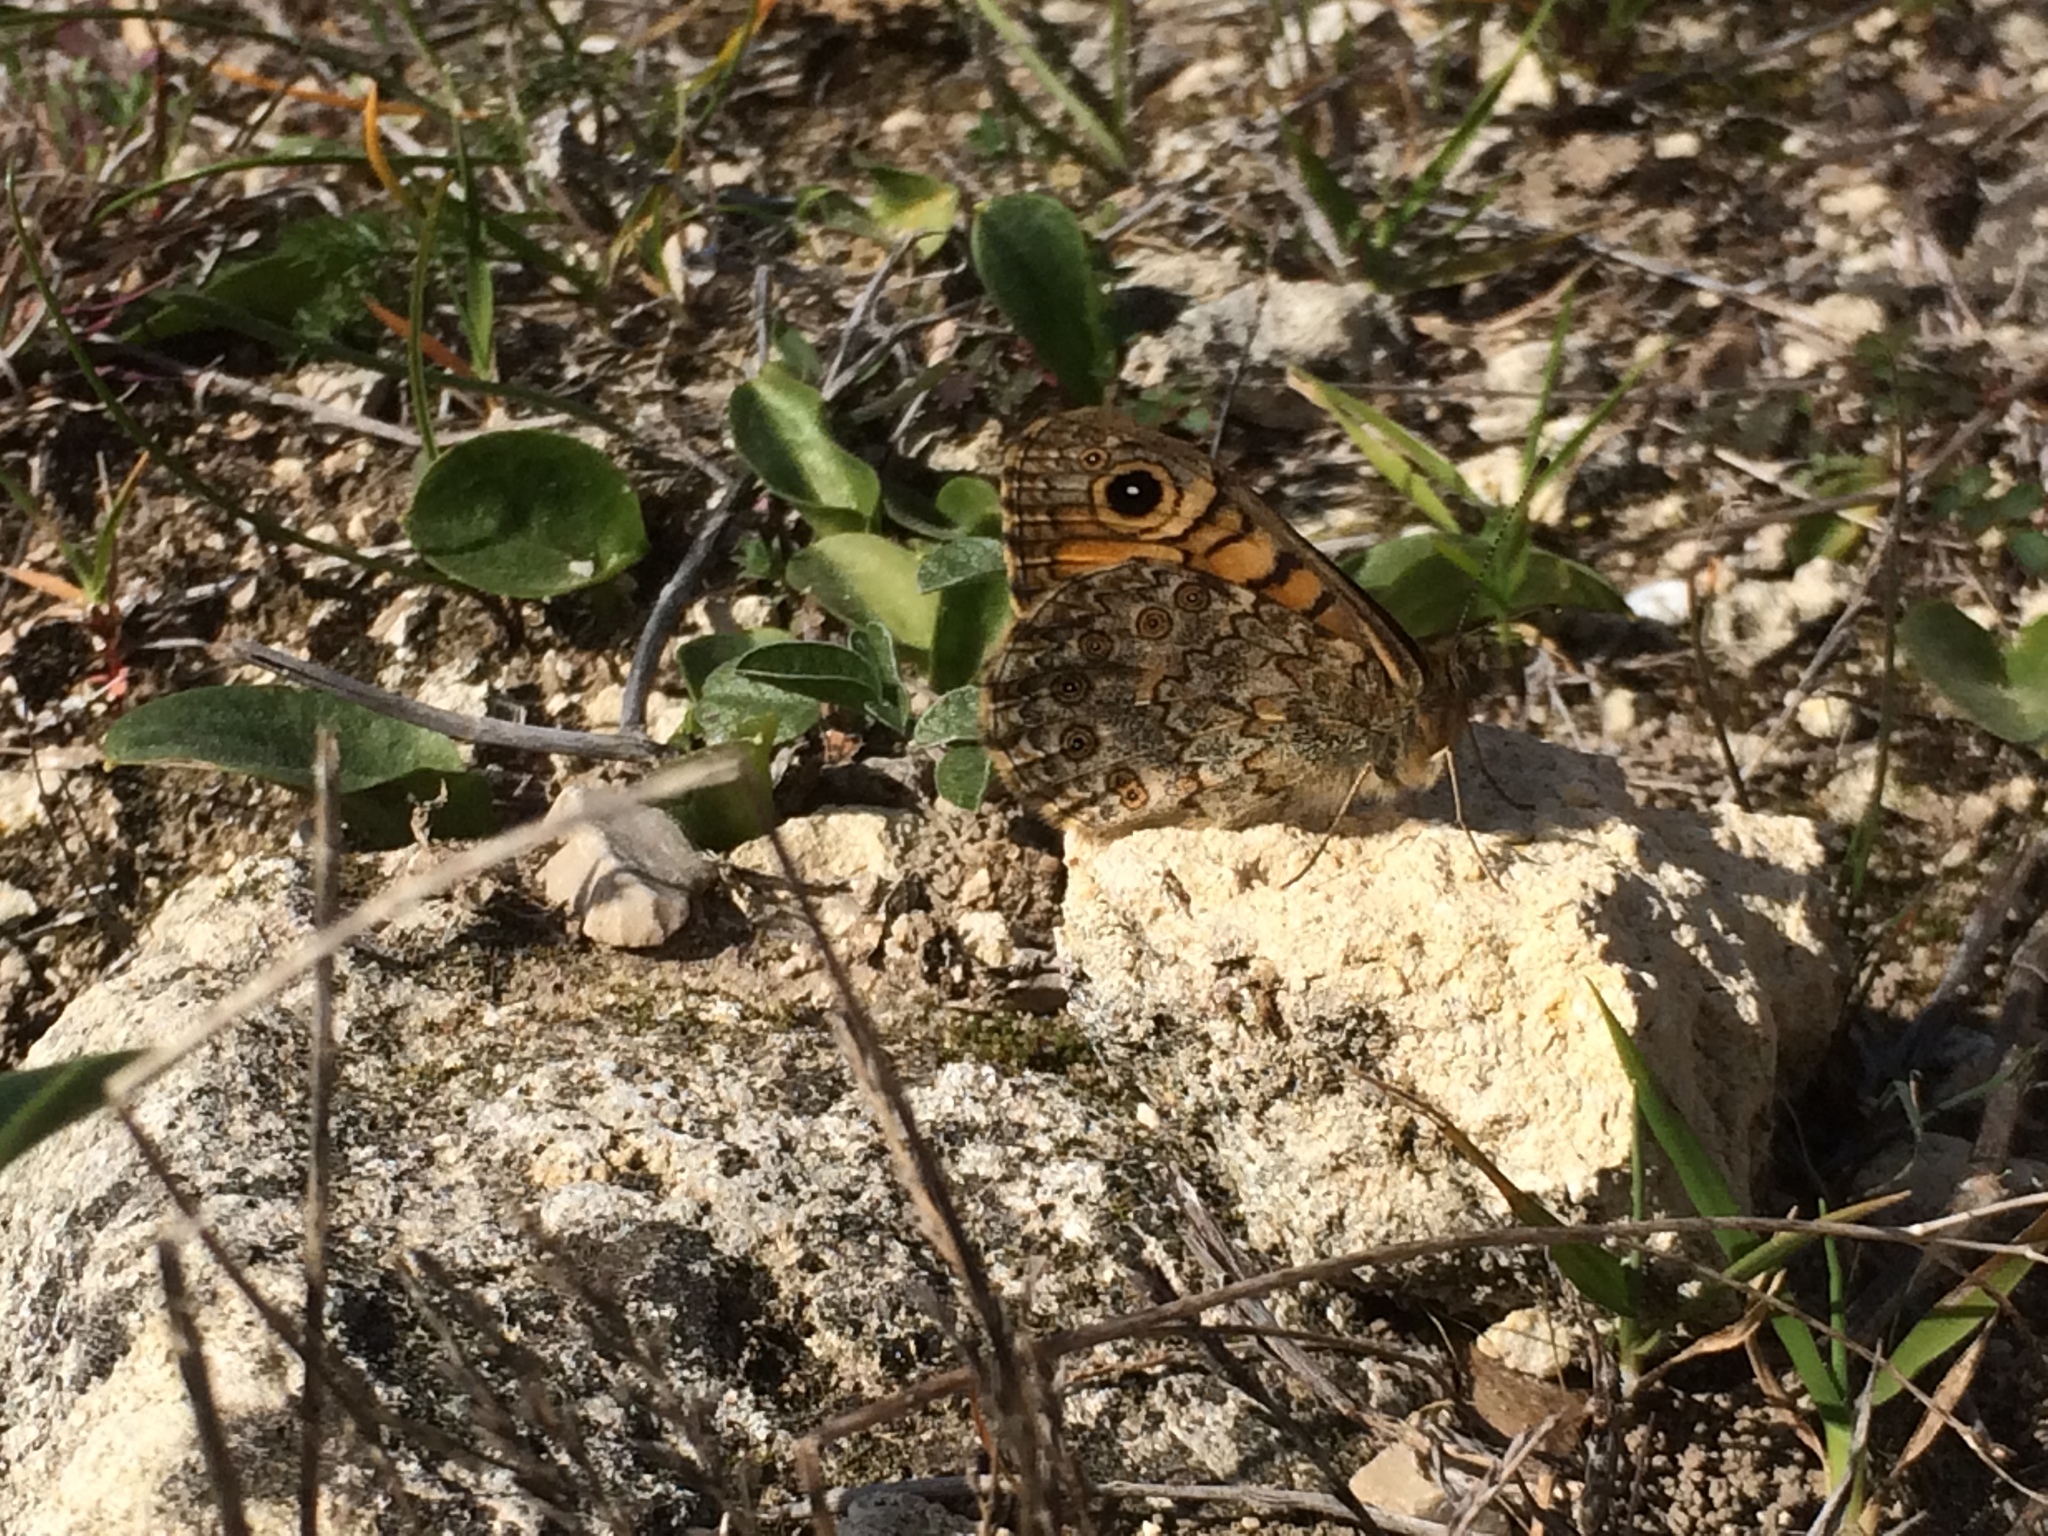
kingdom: Animalia
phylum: Arthropoda
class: Insecta
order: Lepidoptera
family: Nymphalidae
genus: Pararge
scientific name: Pararge Lasiommata megera
